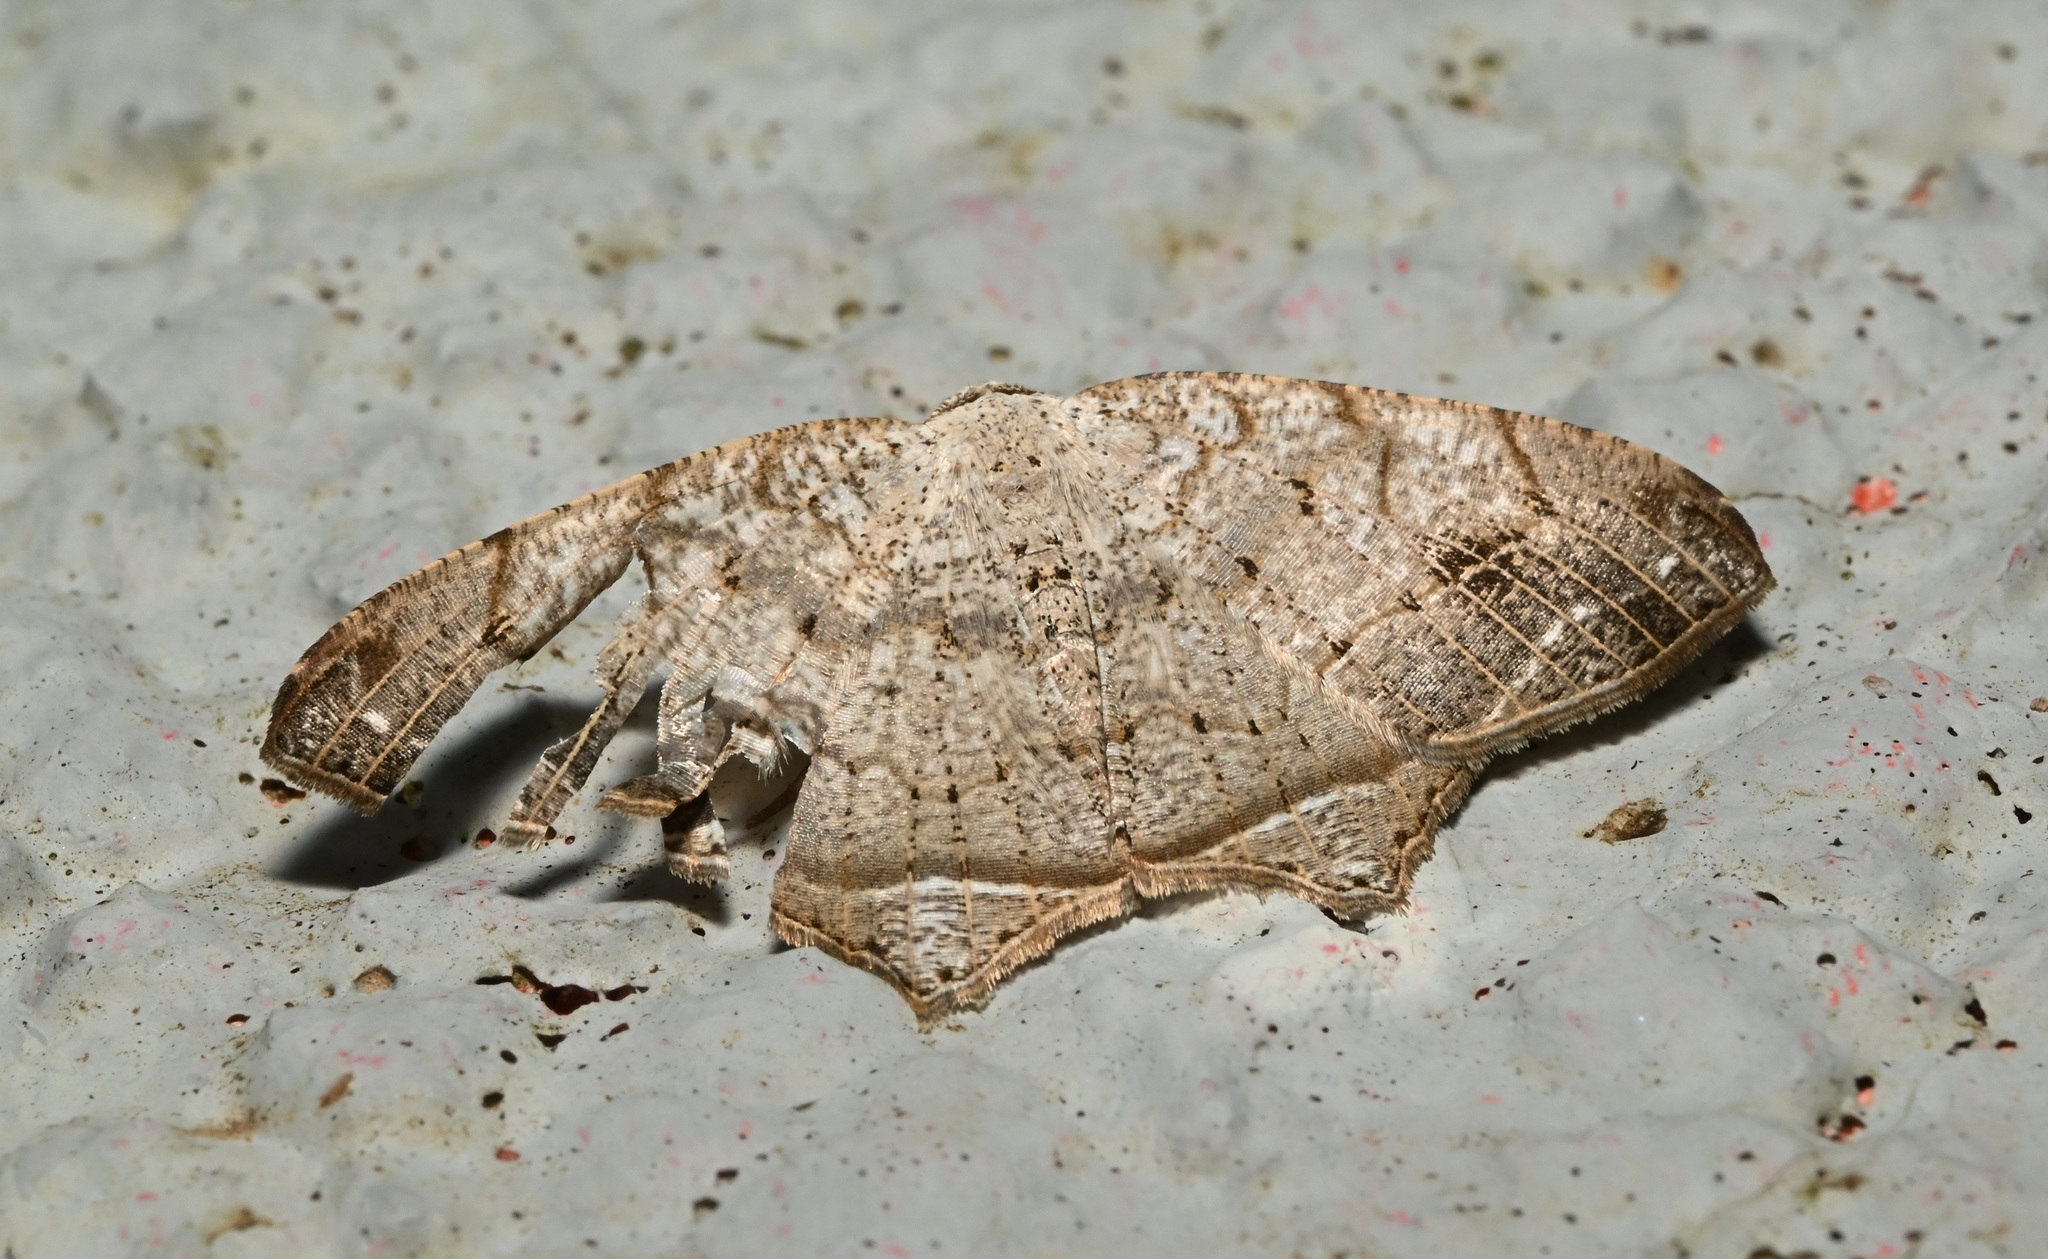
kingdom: Animalia
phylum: Arthropoda
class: Insecta
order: Lepidoptera
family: Geometridae
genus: Oxymacaria
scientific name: Oxymacaria temeraria
